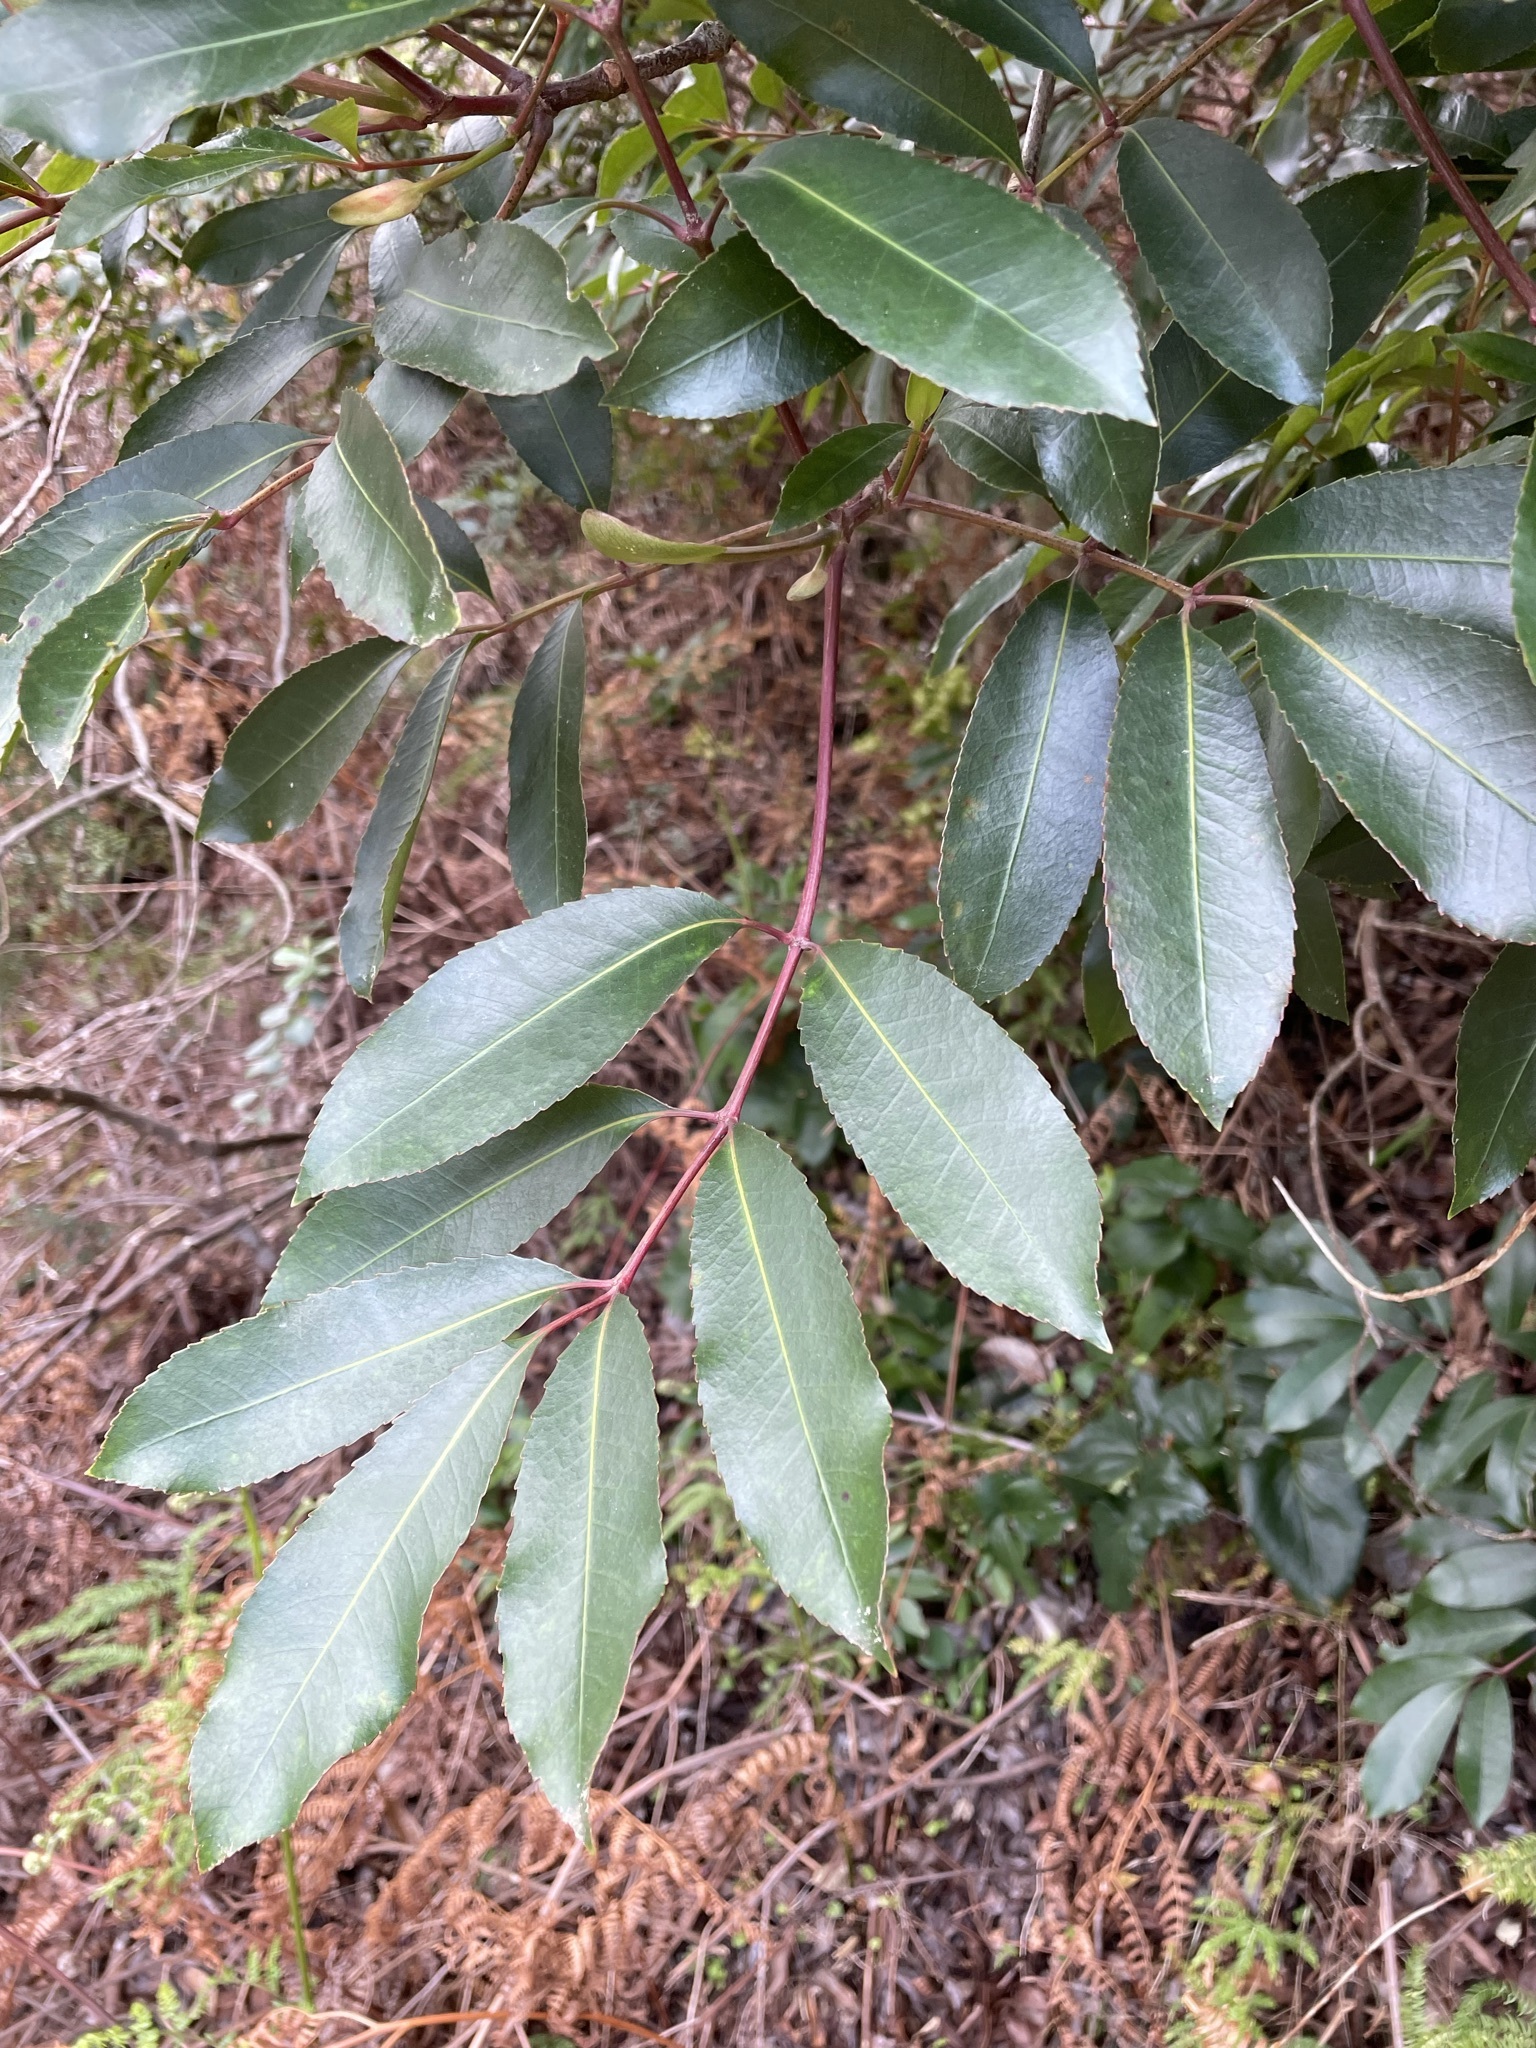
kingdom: Plantae
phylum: Tracheophyta
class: Magnoliopsida
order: Oxalidales
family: Cunoniaceae
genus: Cunonia
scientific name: Cunonia capensis
